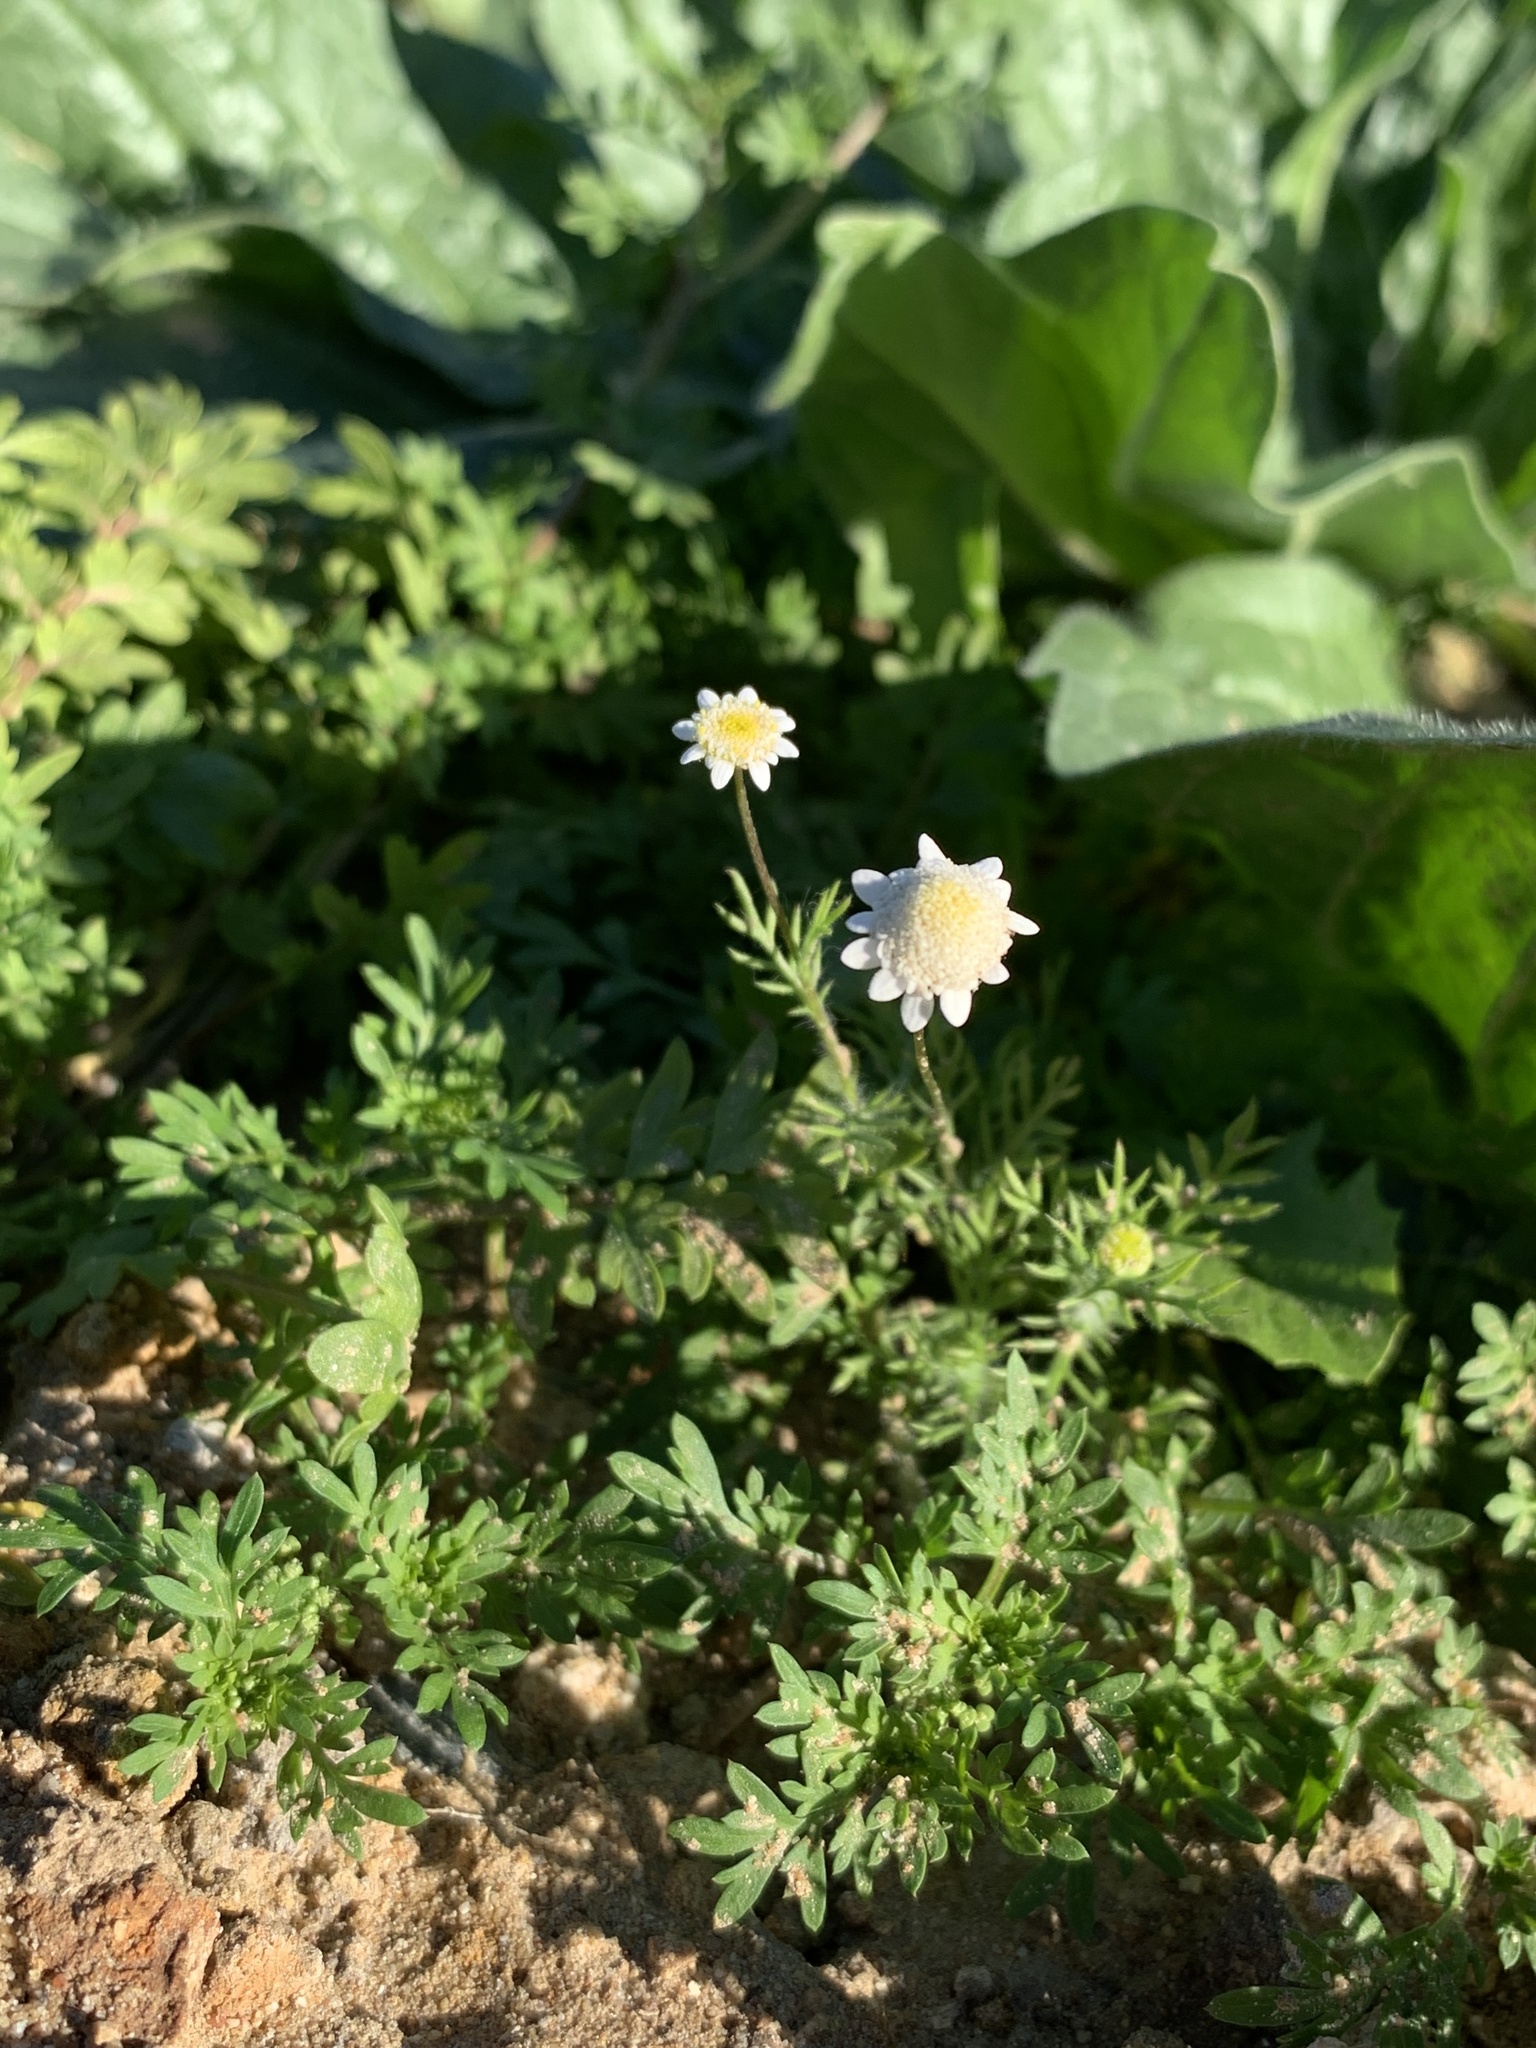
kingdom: Plantae
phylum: Tracheophyta
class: Magnoliopsida
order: Asterales
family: Asteraceae
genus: Cotula
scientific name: Cotula turbinata
